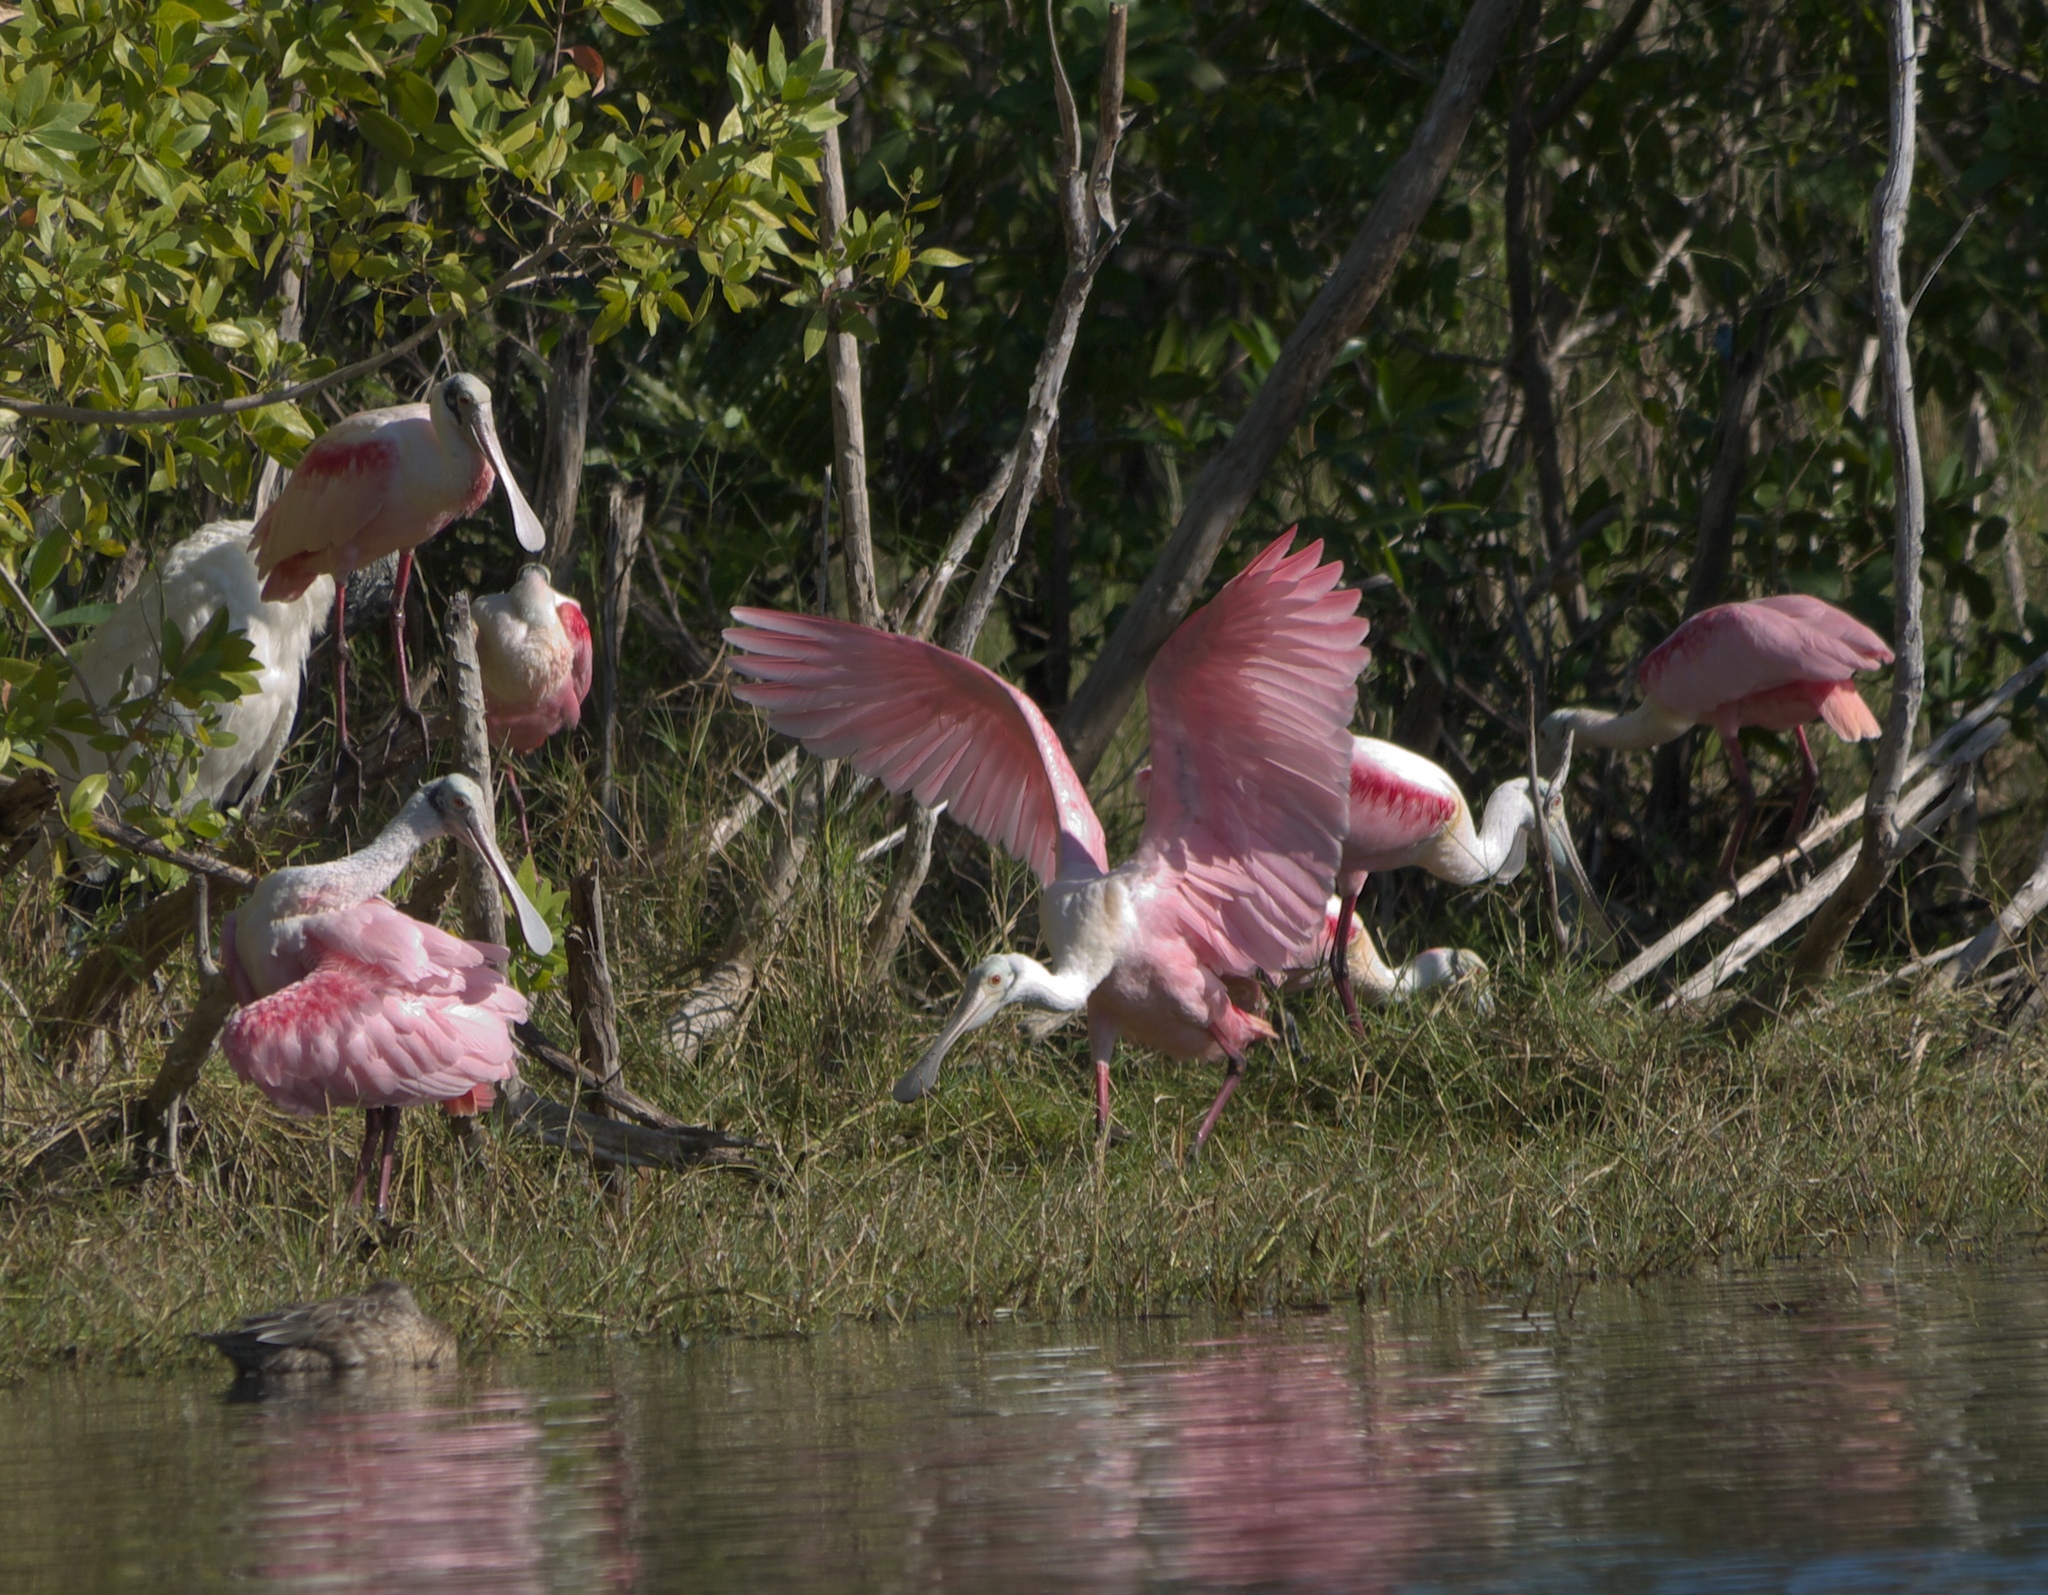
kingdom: Animalia
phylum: Chordata
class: Aves
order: Pelecaniformes
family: Threskiornithidae
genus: Platalea
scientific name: Platalea ajaja
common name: Roseate spoonbill
